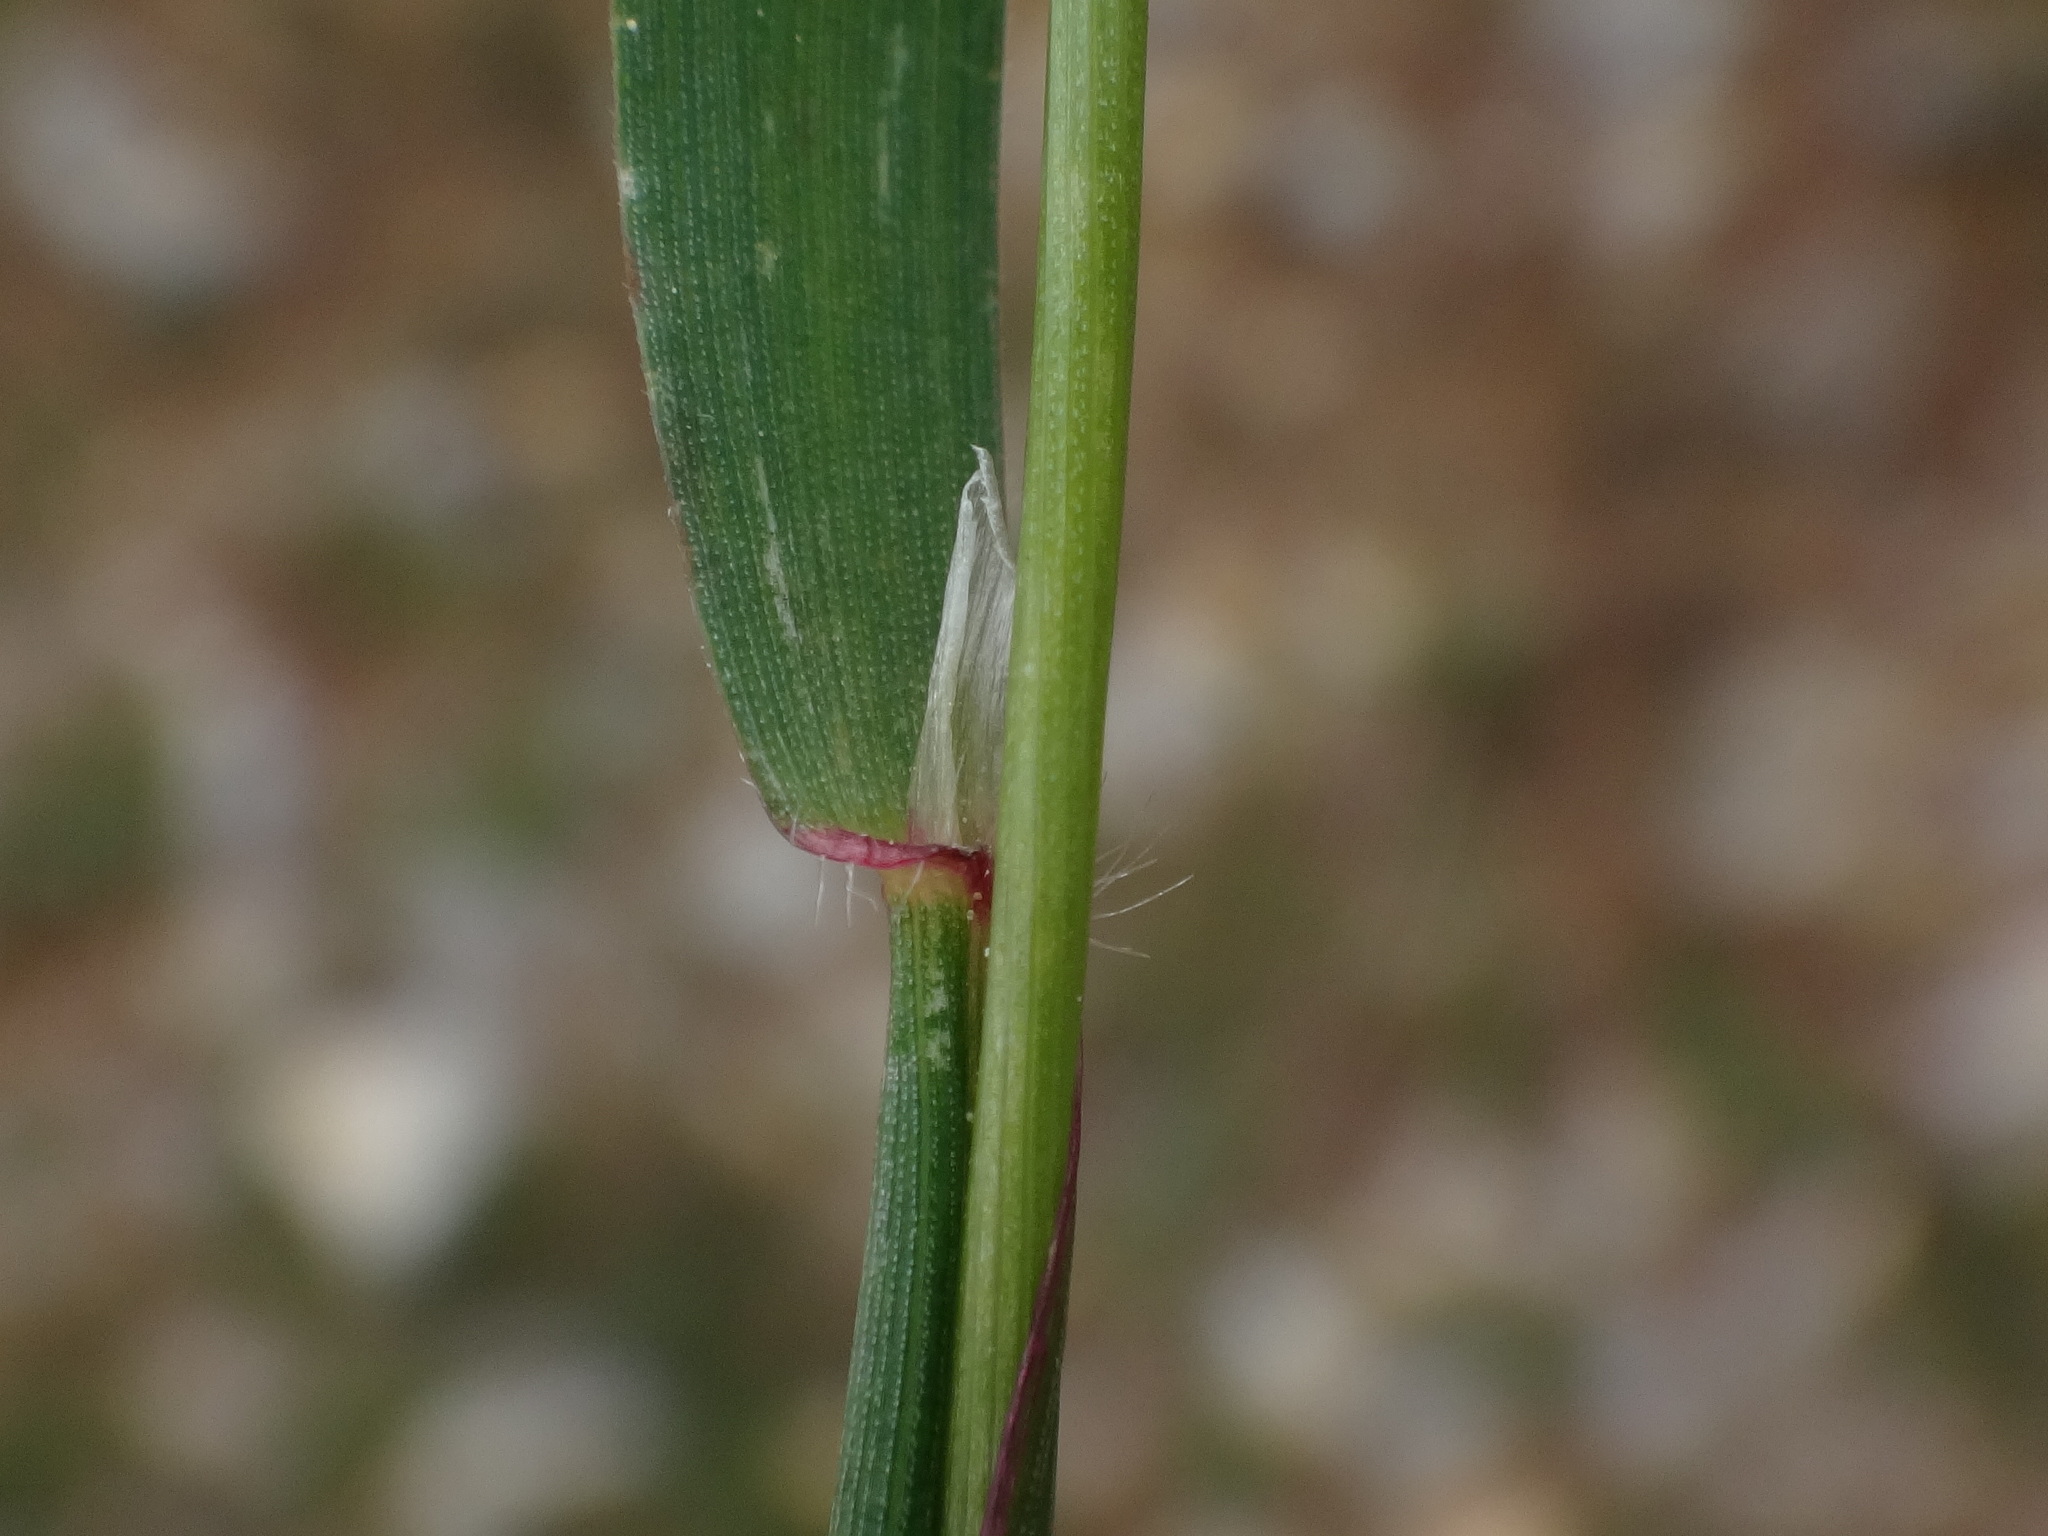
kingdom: Plantae
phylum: Tracheophyta
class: Liliopsida
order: Poales
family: Poaceae
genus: Anthoxanthum
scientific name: Anthoxanthum odoratum
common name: Sweet vernalgrass
